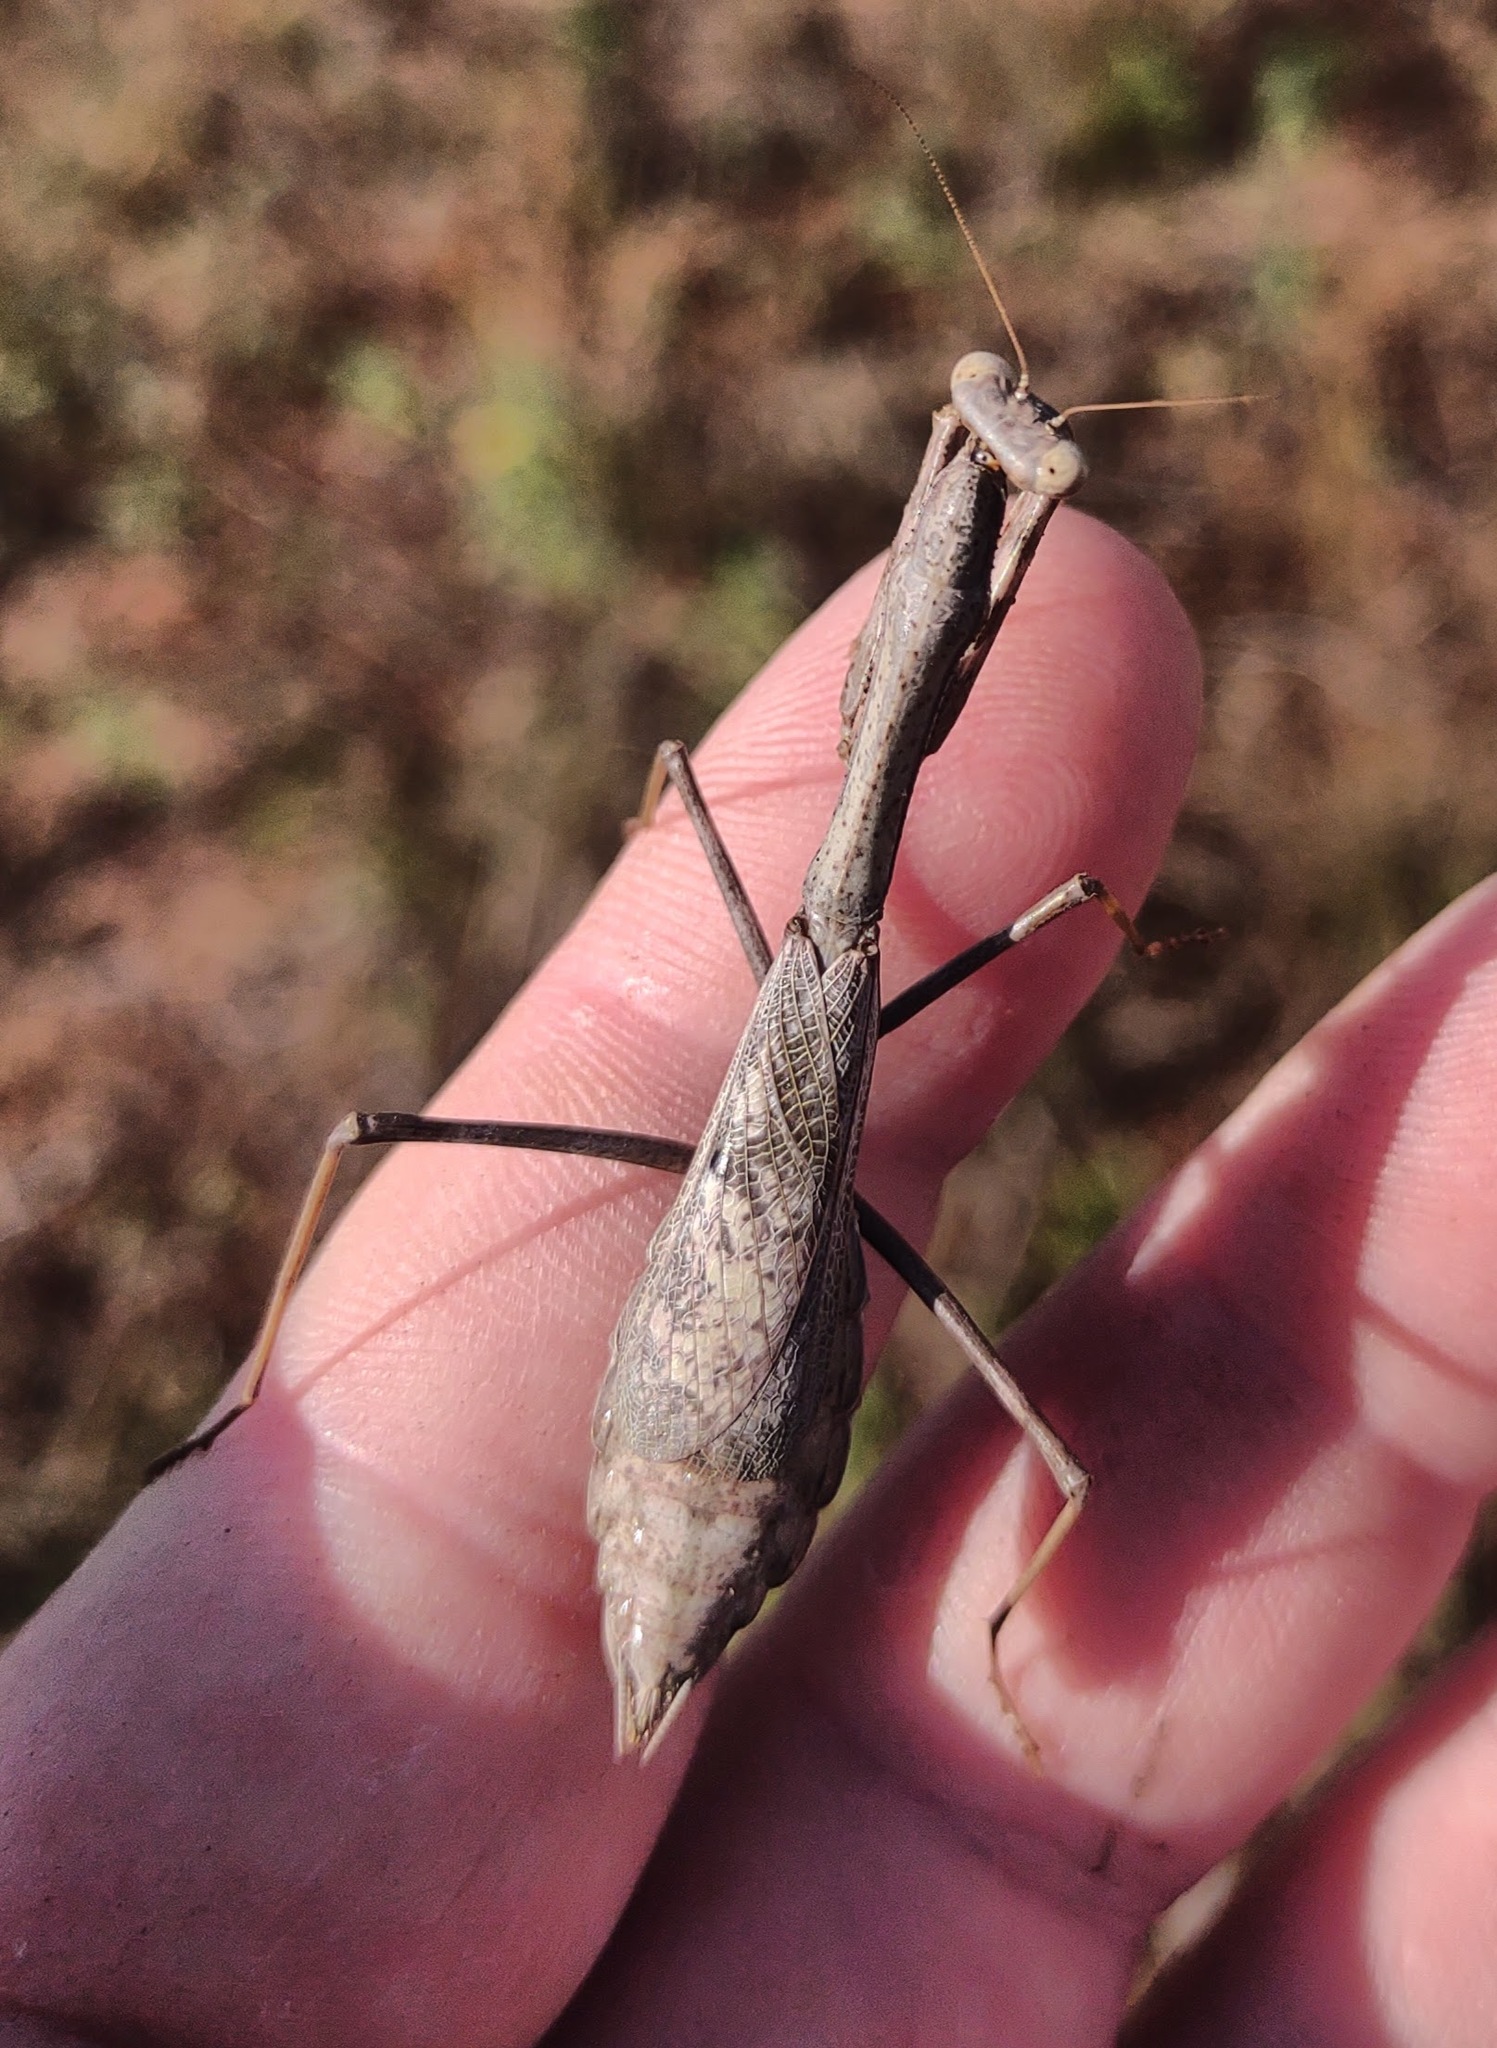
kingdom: Animalia
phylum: Arthropoda
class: Insecta
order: Mantodea
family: Mantidae
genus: Stagmomantis
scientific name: Stagmomantis carolina
